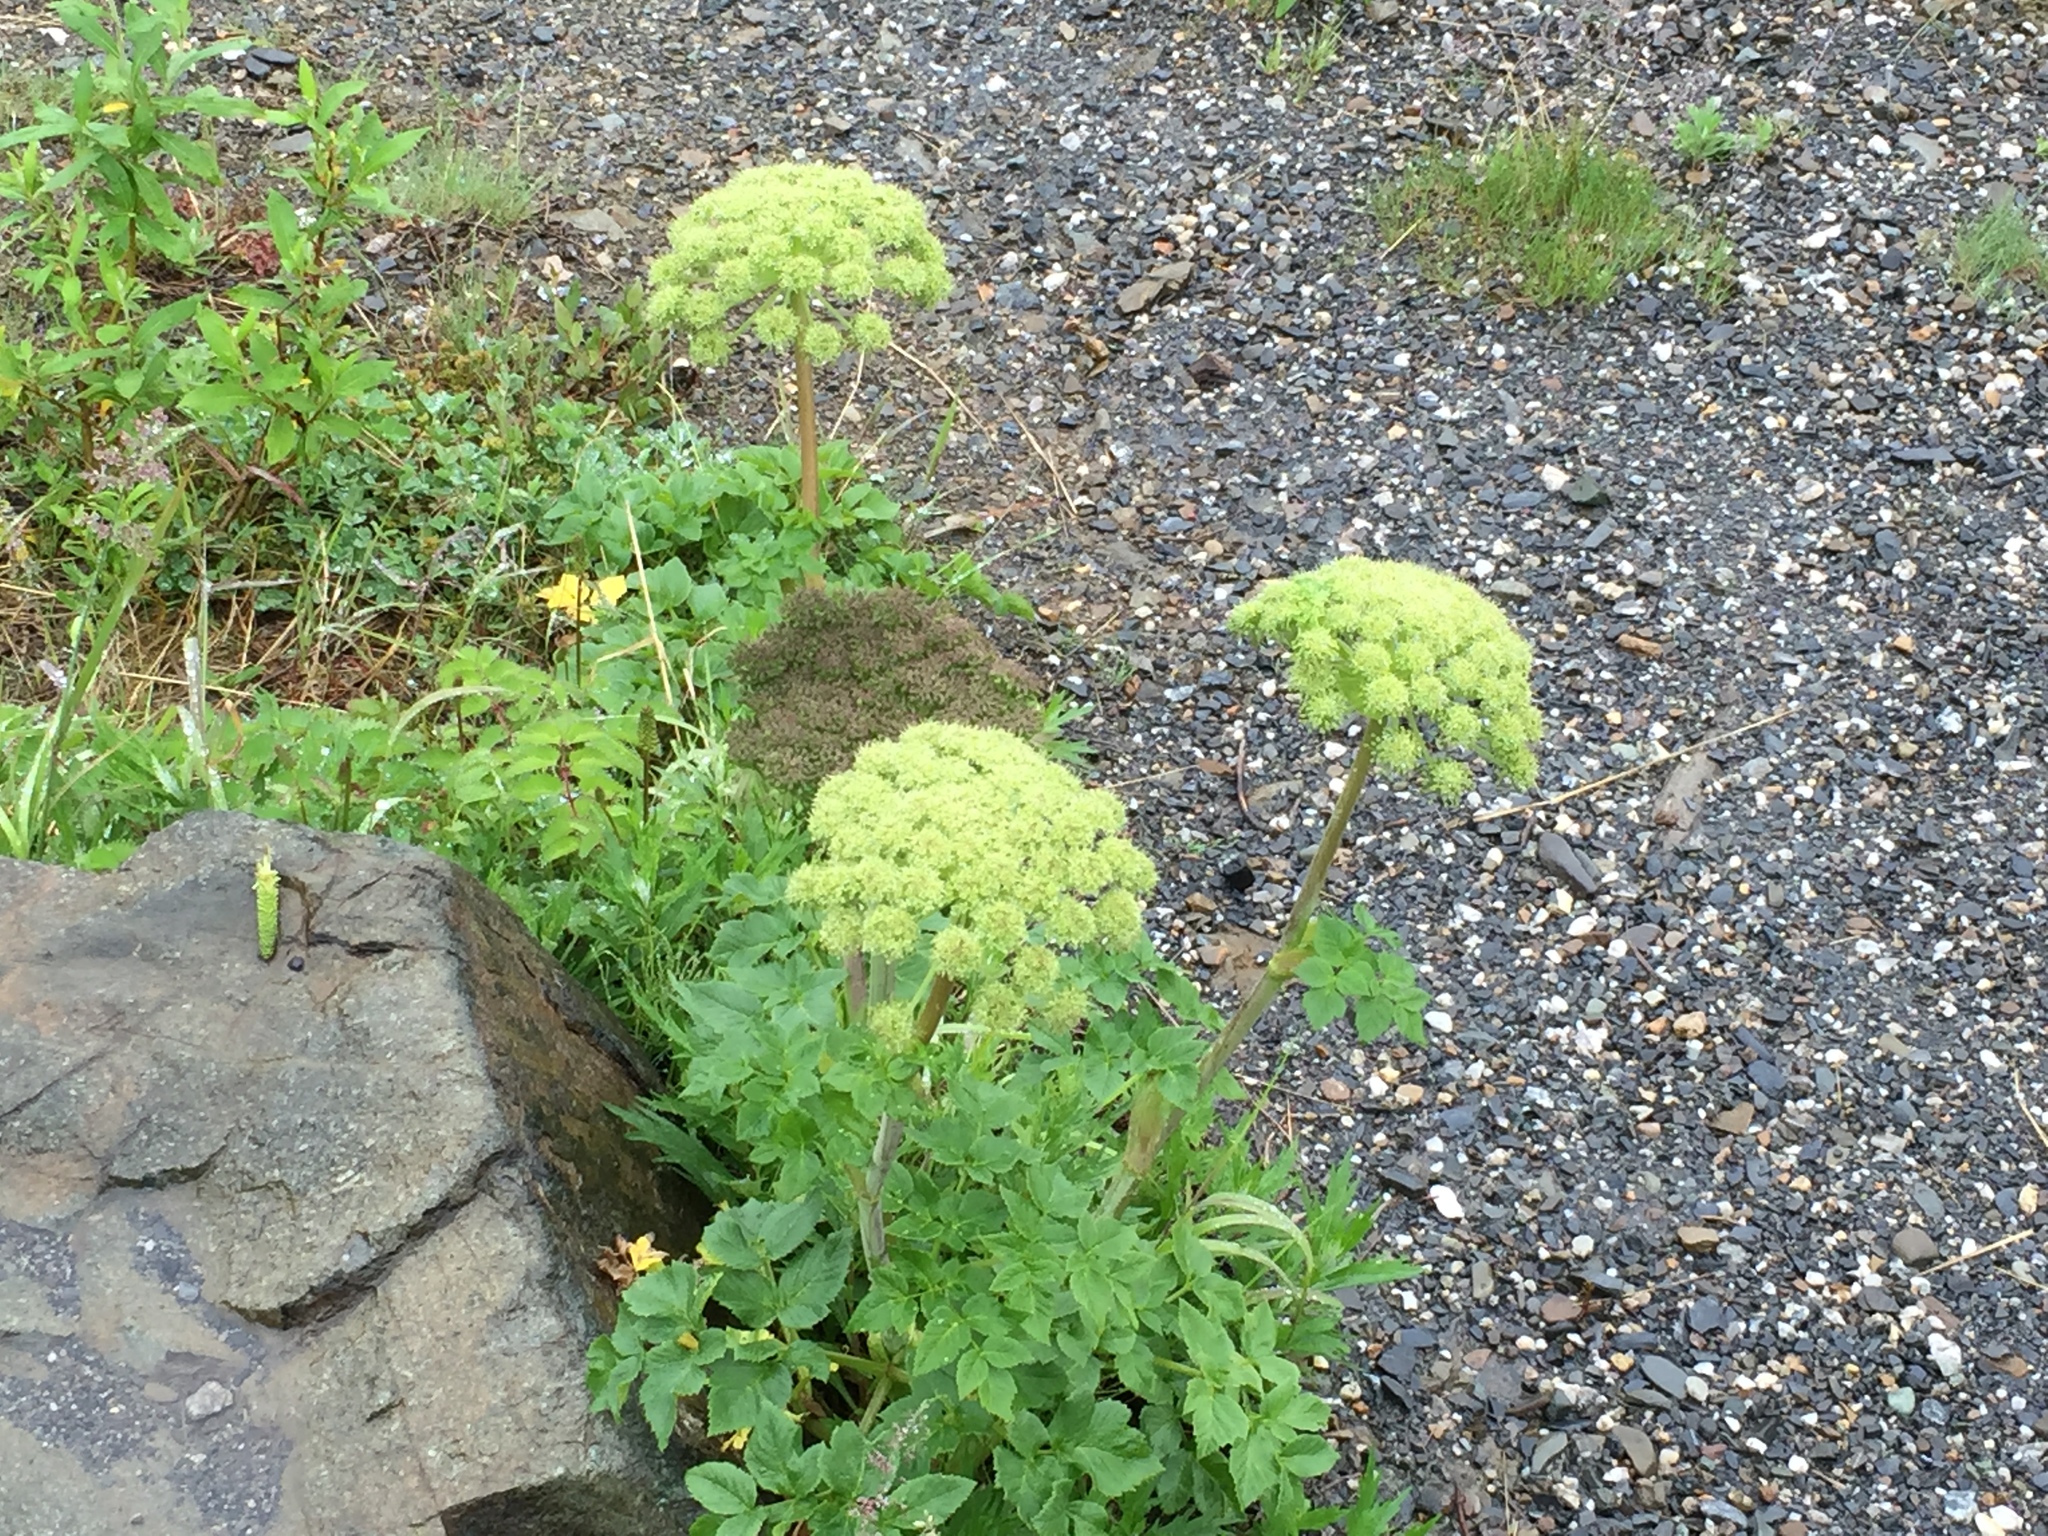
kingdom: Plantae
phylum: Tracheophyta
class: Magnoliopsida
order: Apiales
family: Apiaceae
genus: Angelica
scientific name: Angelica lucida
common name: Seabeach angelica
